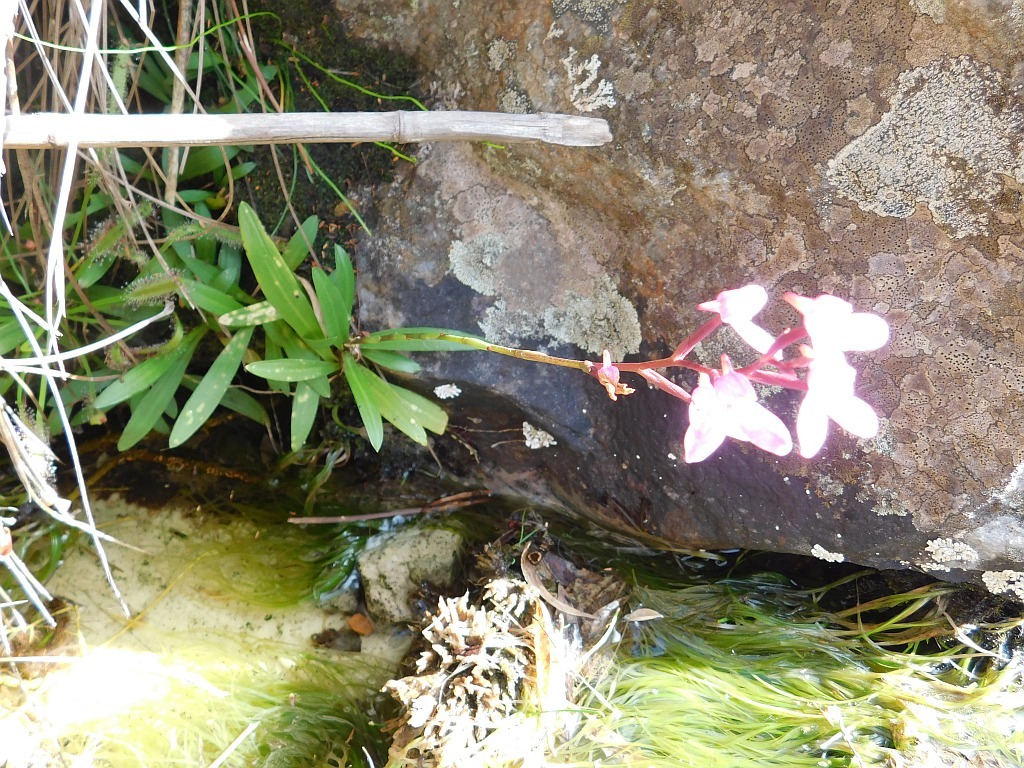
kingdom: Plantae
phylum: Tracheophyta
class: Liliopsida
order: Asparagales
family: Orchidaceae
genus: Disa
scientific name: Disa tripetaloides
